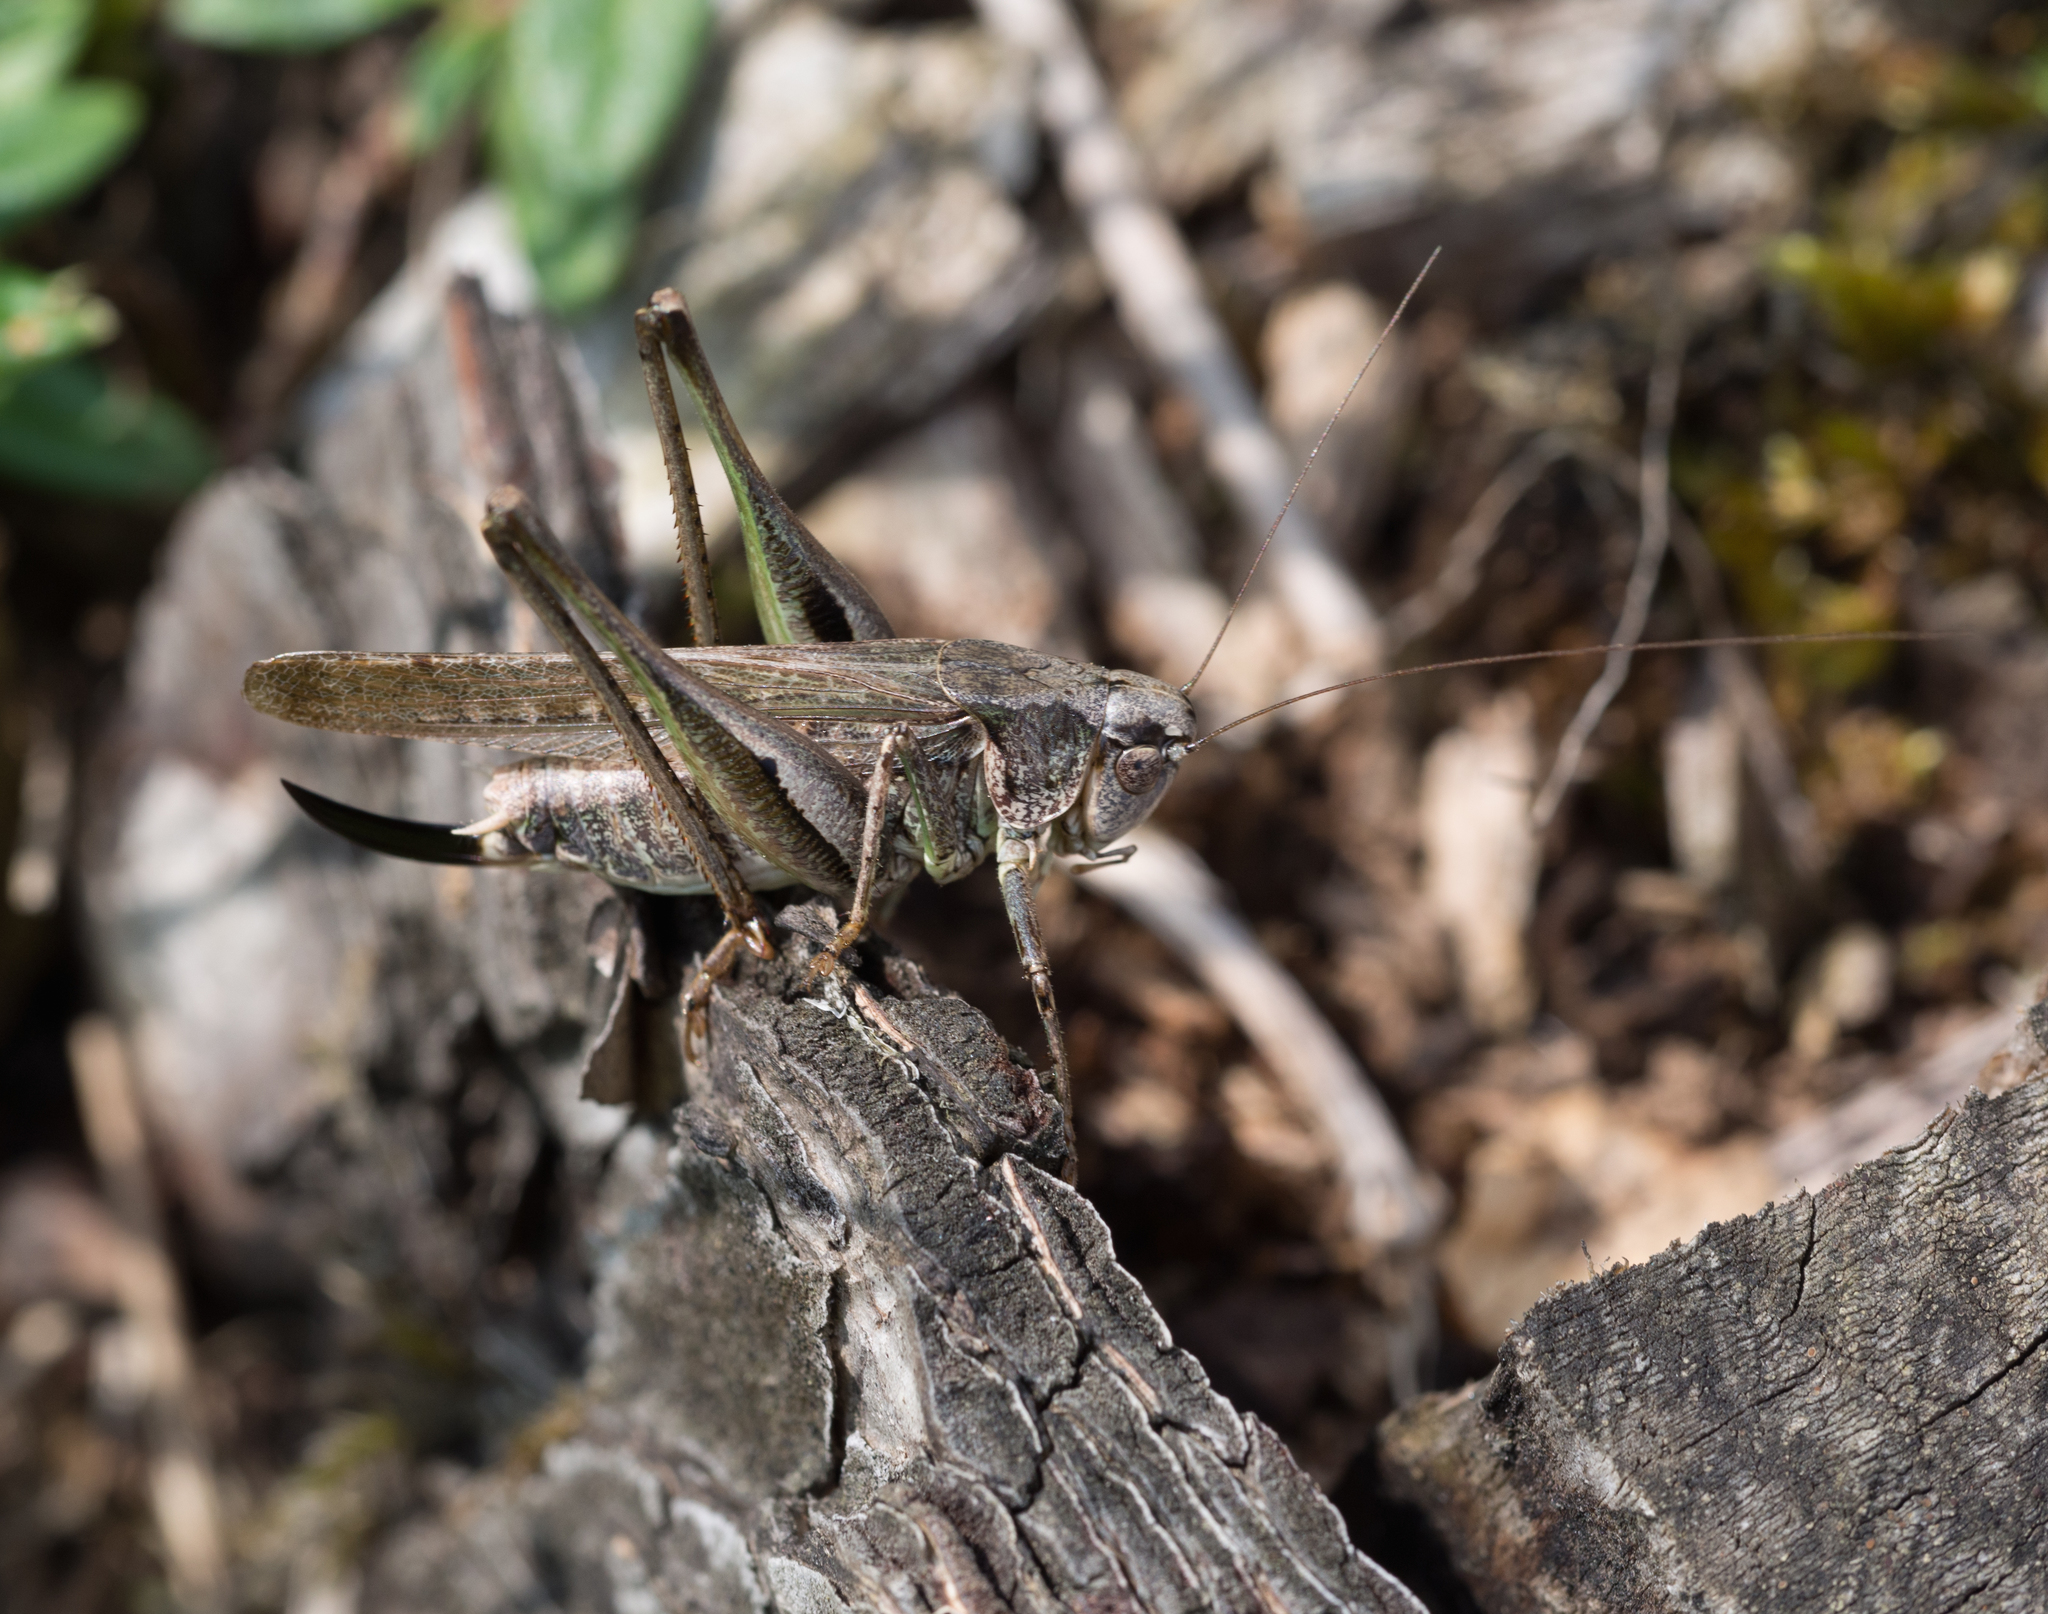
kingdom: Animalia
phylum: Arthropoda
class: Insecta
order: Orthoptera
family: Tettigoniidae
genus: Platycleis
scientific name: Platycleis grisea
